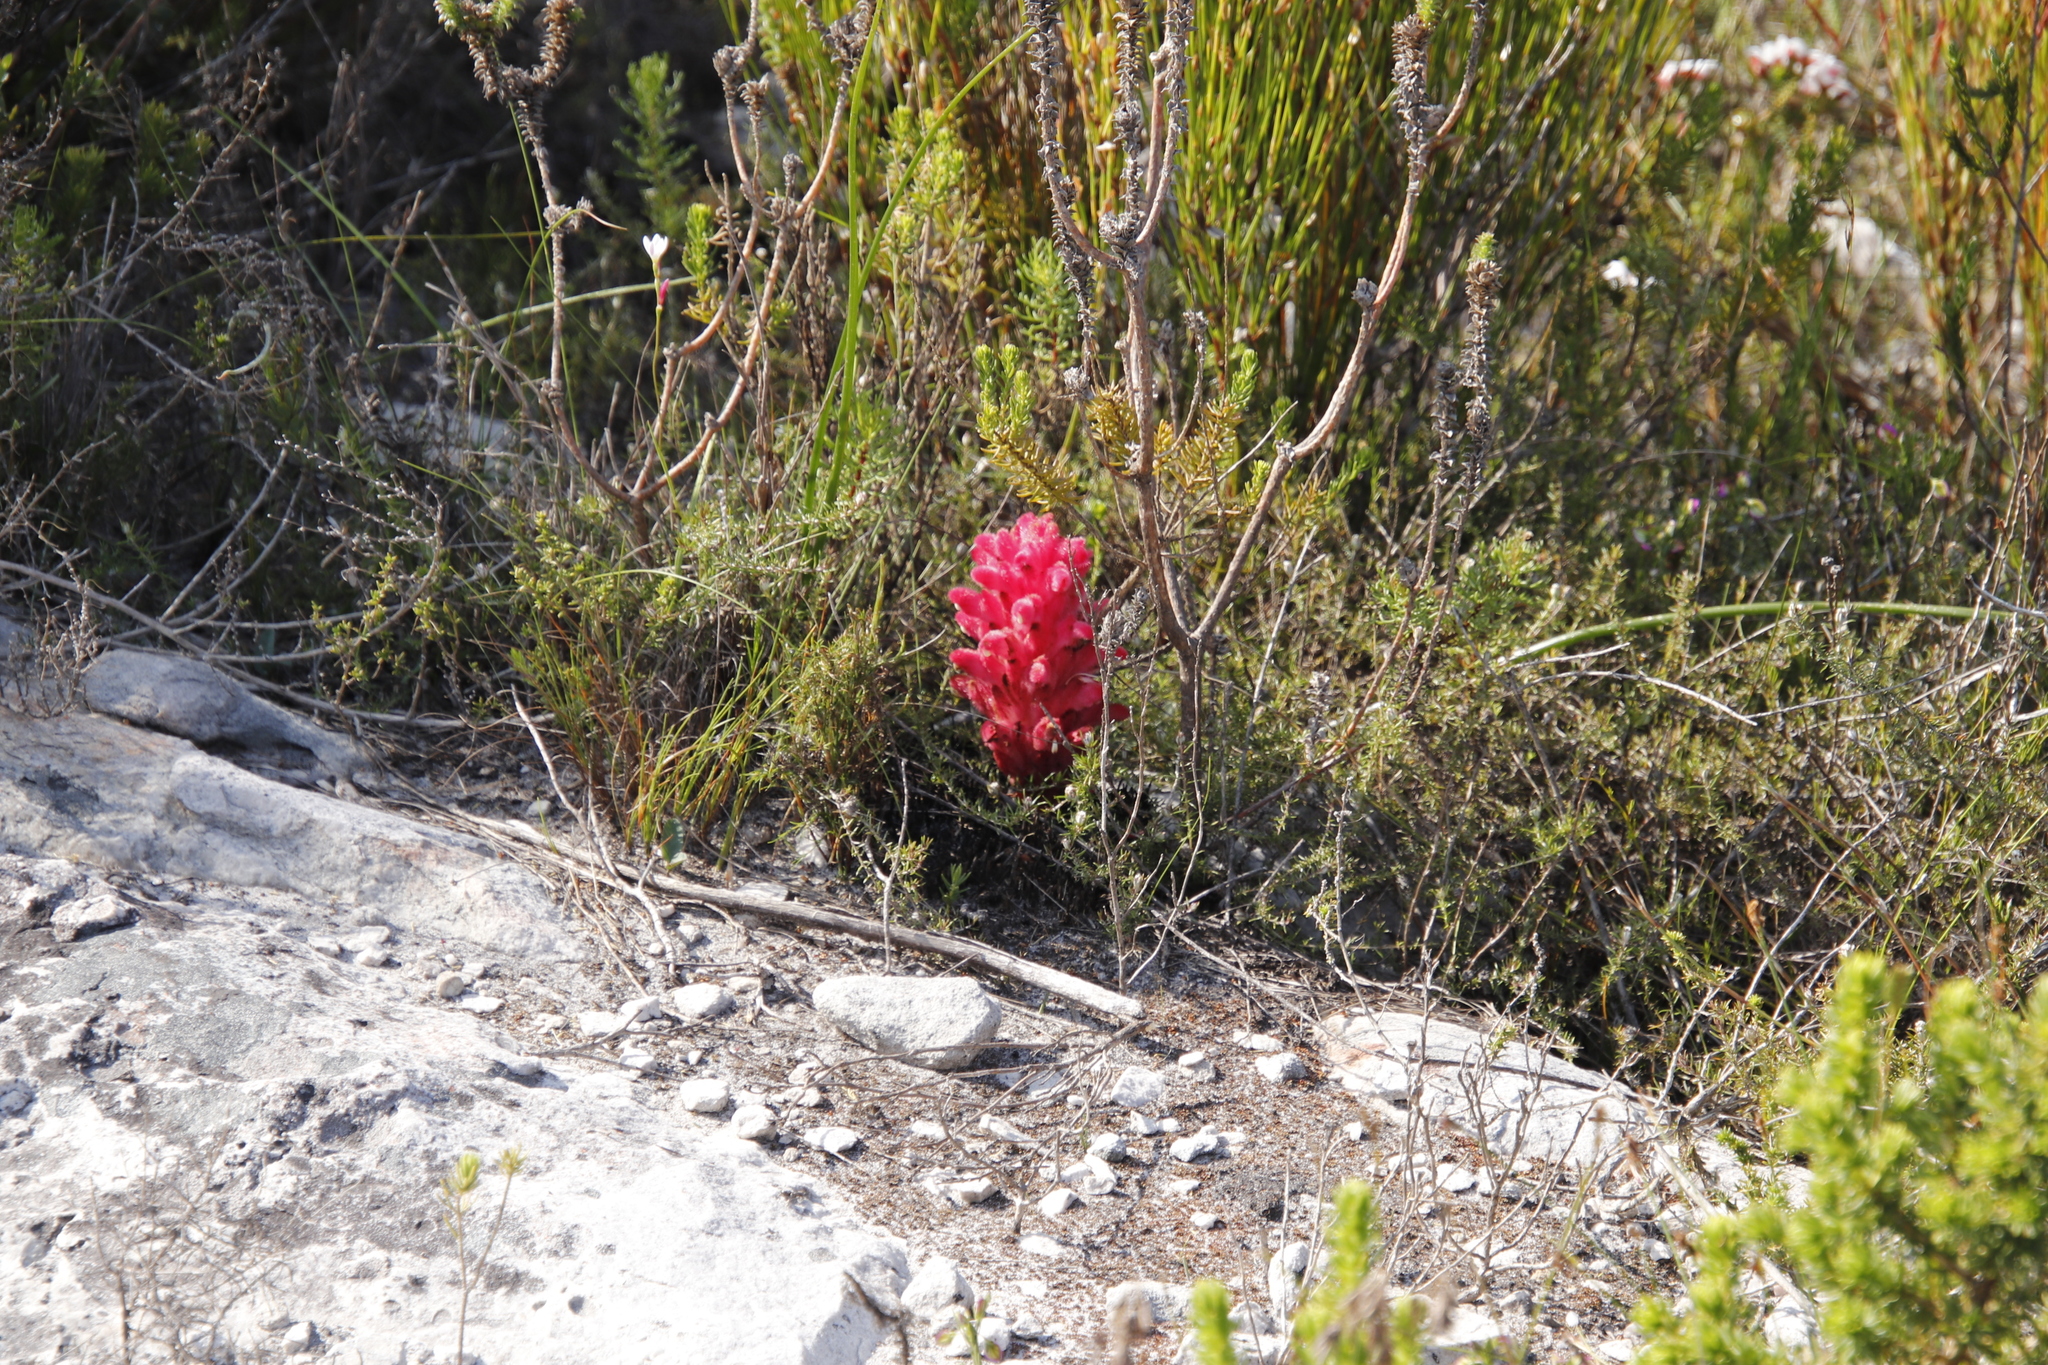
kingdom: Plantae
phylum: Tracheophyta
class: Magnoliopsida
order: Lamiales
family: Orobanchaceae
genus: Hyobanche
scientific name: Hyobanche sanguinea
